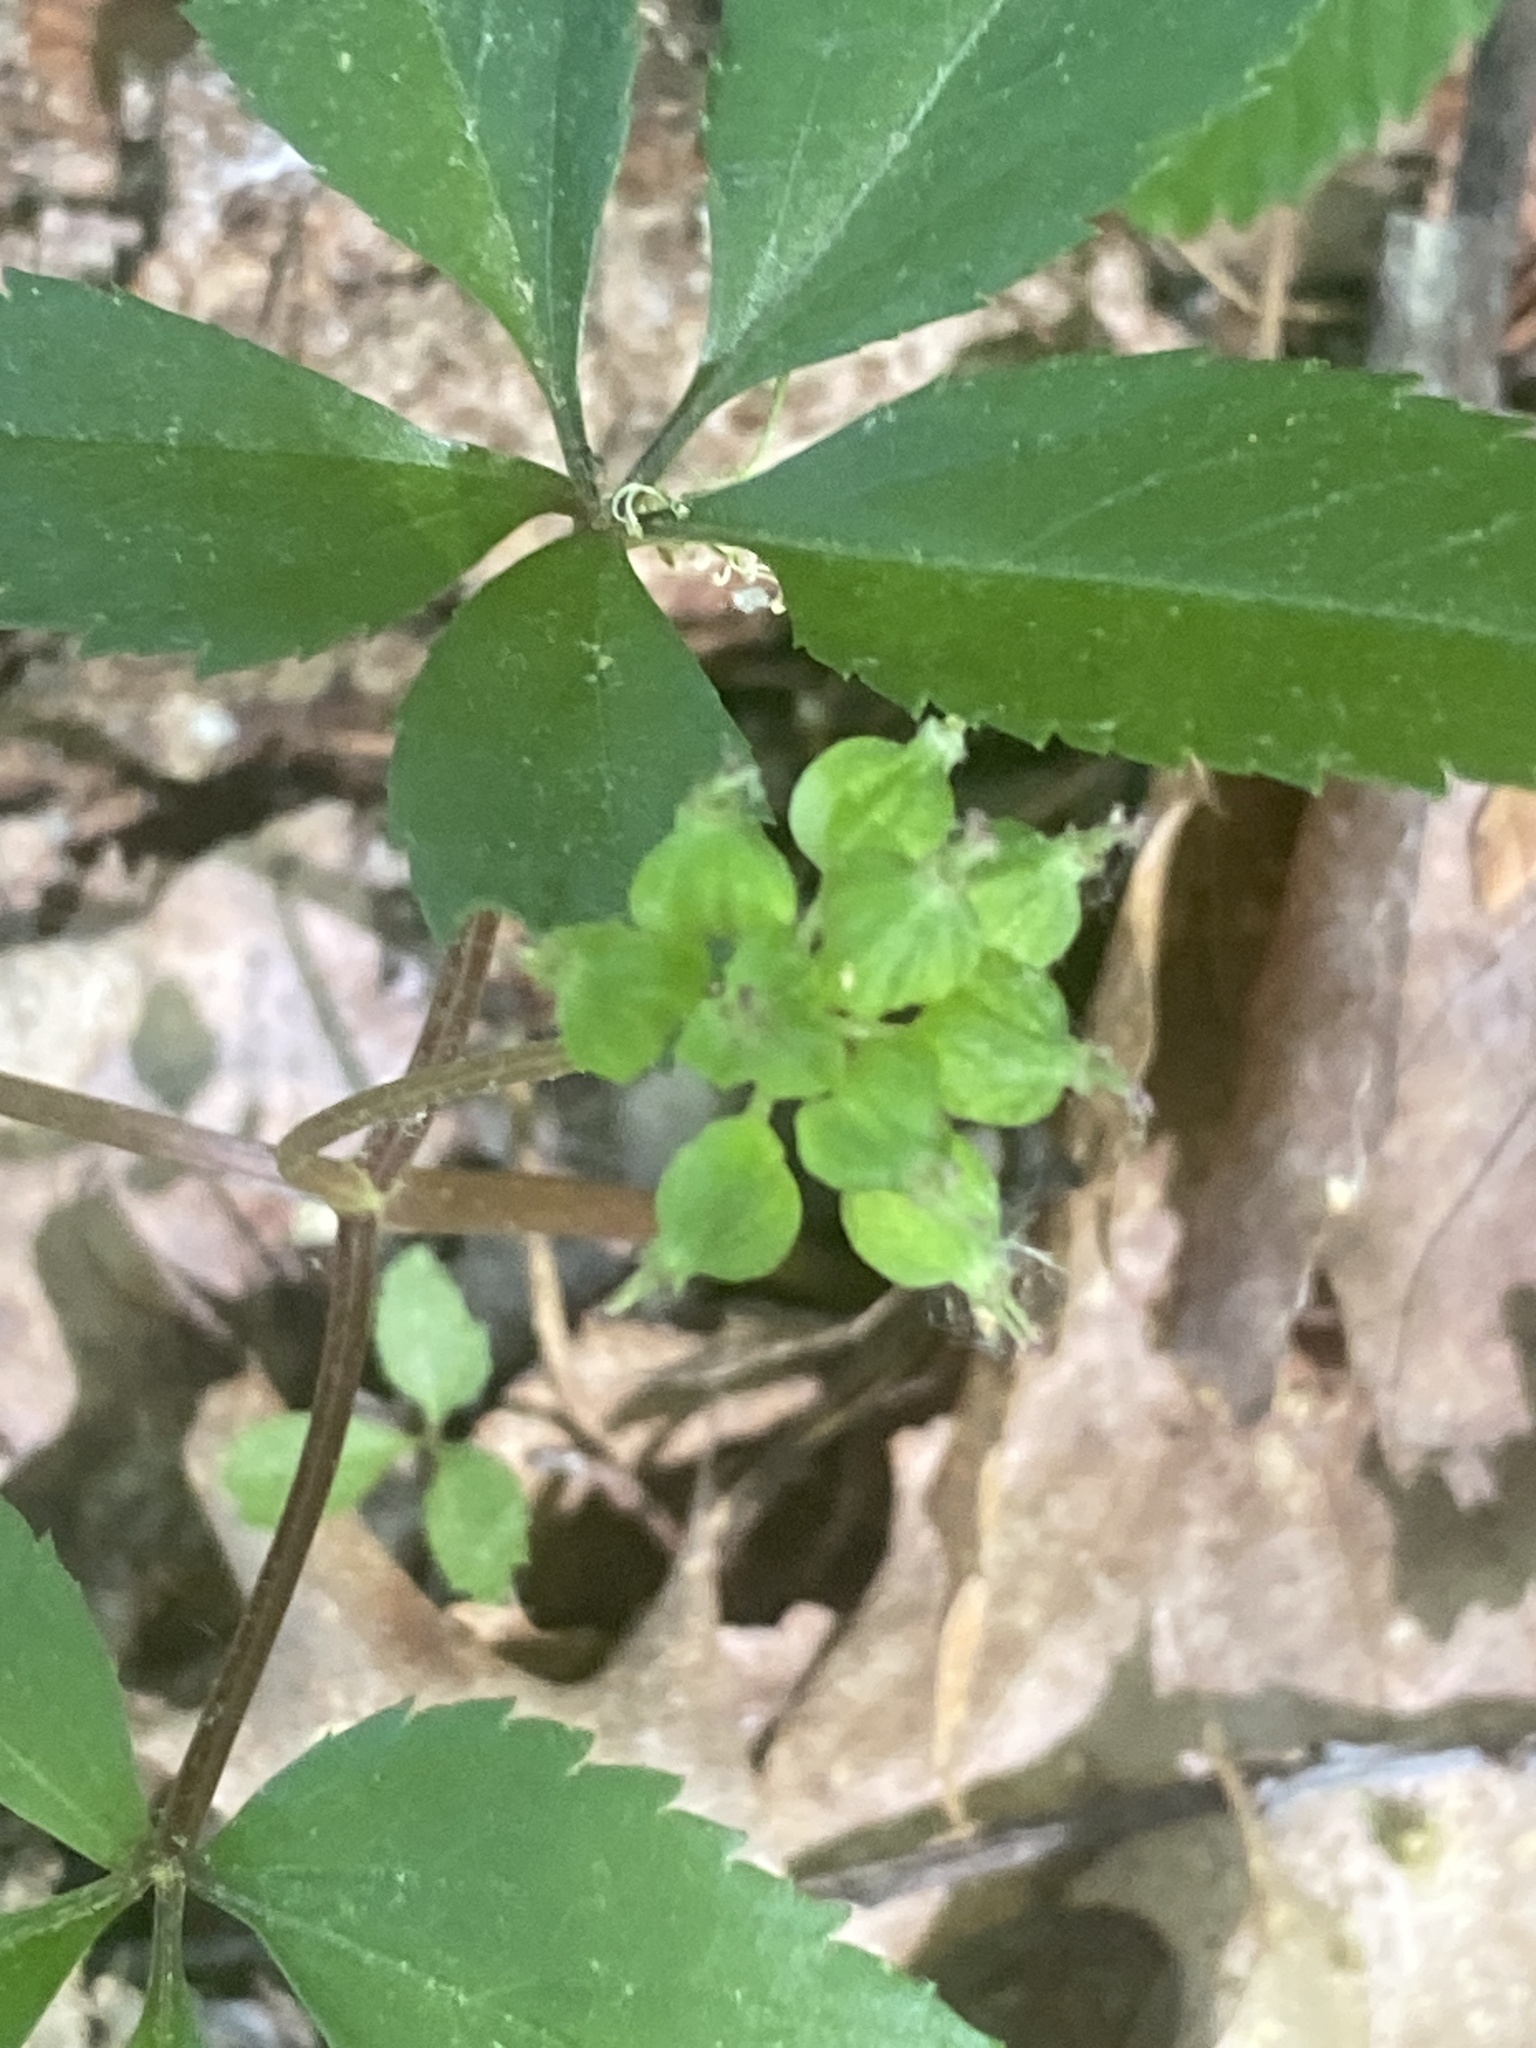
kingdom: Plantae
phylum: Tracheophyta
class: Magnoliopsida
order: Apiales
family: Araliaceae
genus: Panax
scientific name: Panax trifolius
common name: Dwarf ginseng
